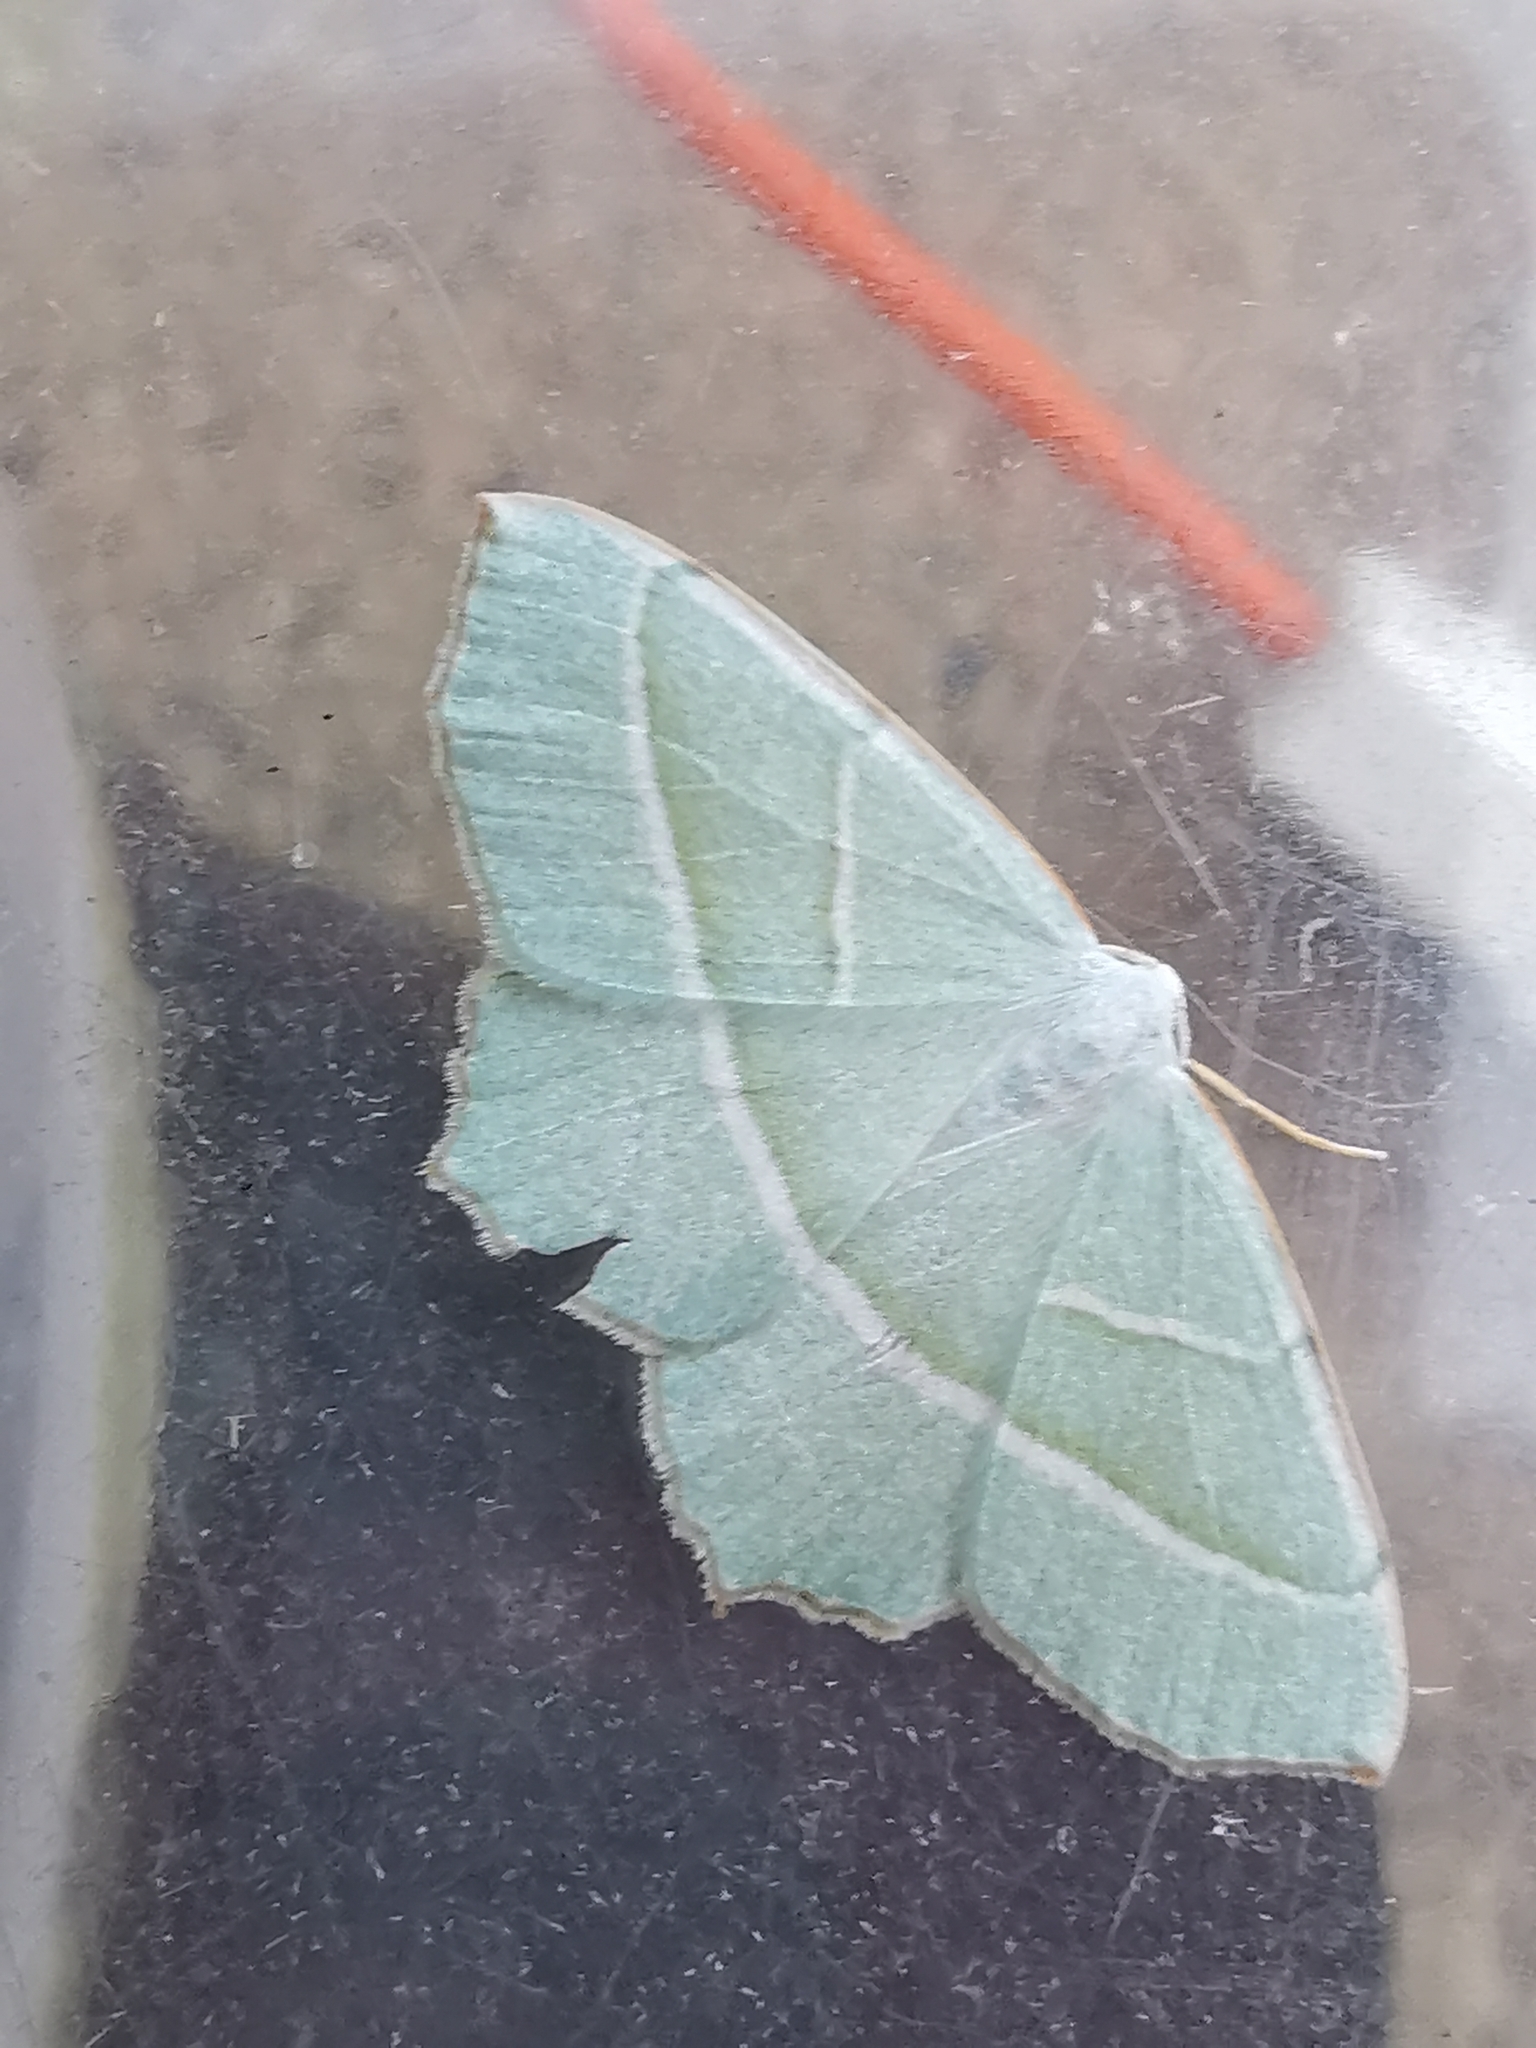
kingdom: Animalia
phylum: Arthropoda
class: Insecta
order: Lepidoptera
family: Geometridae
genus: Campaea
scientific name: Campaea margaritaria
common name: Light emerald
